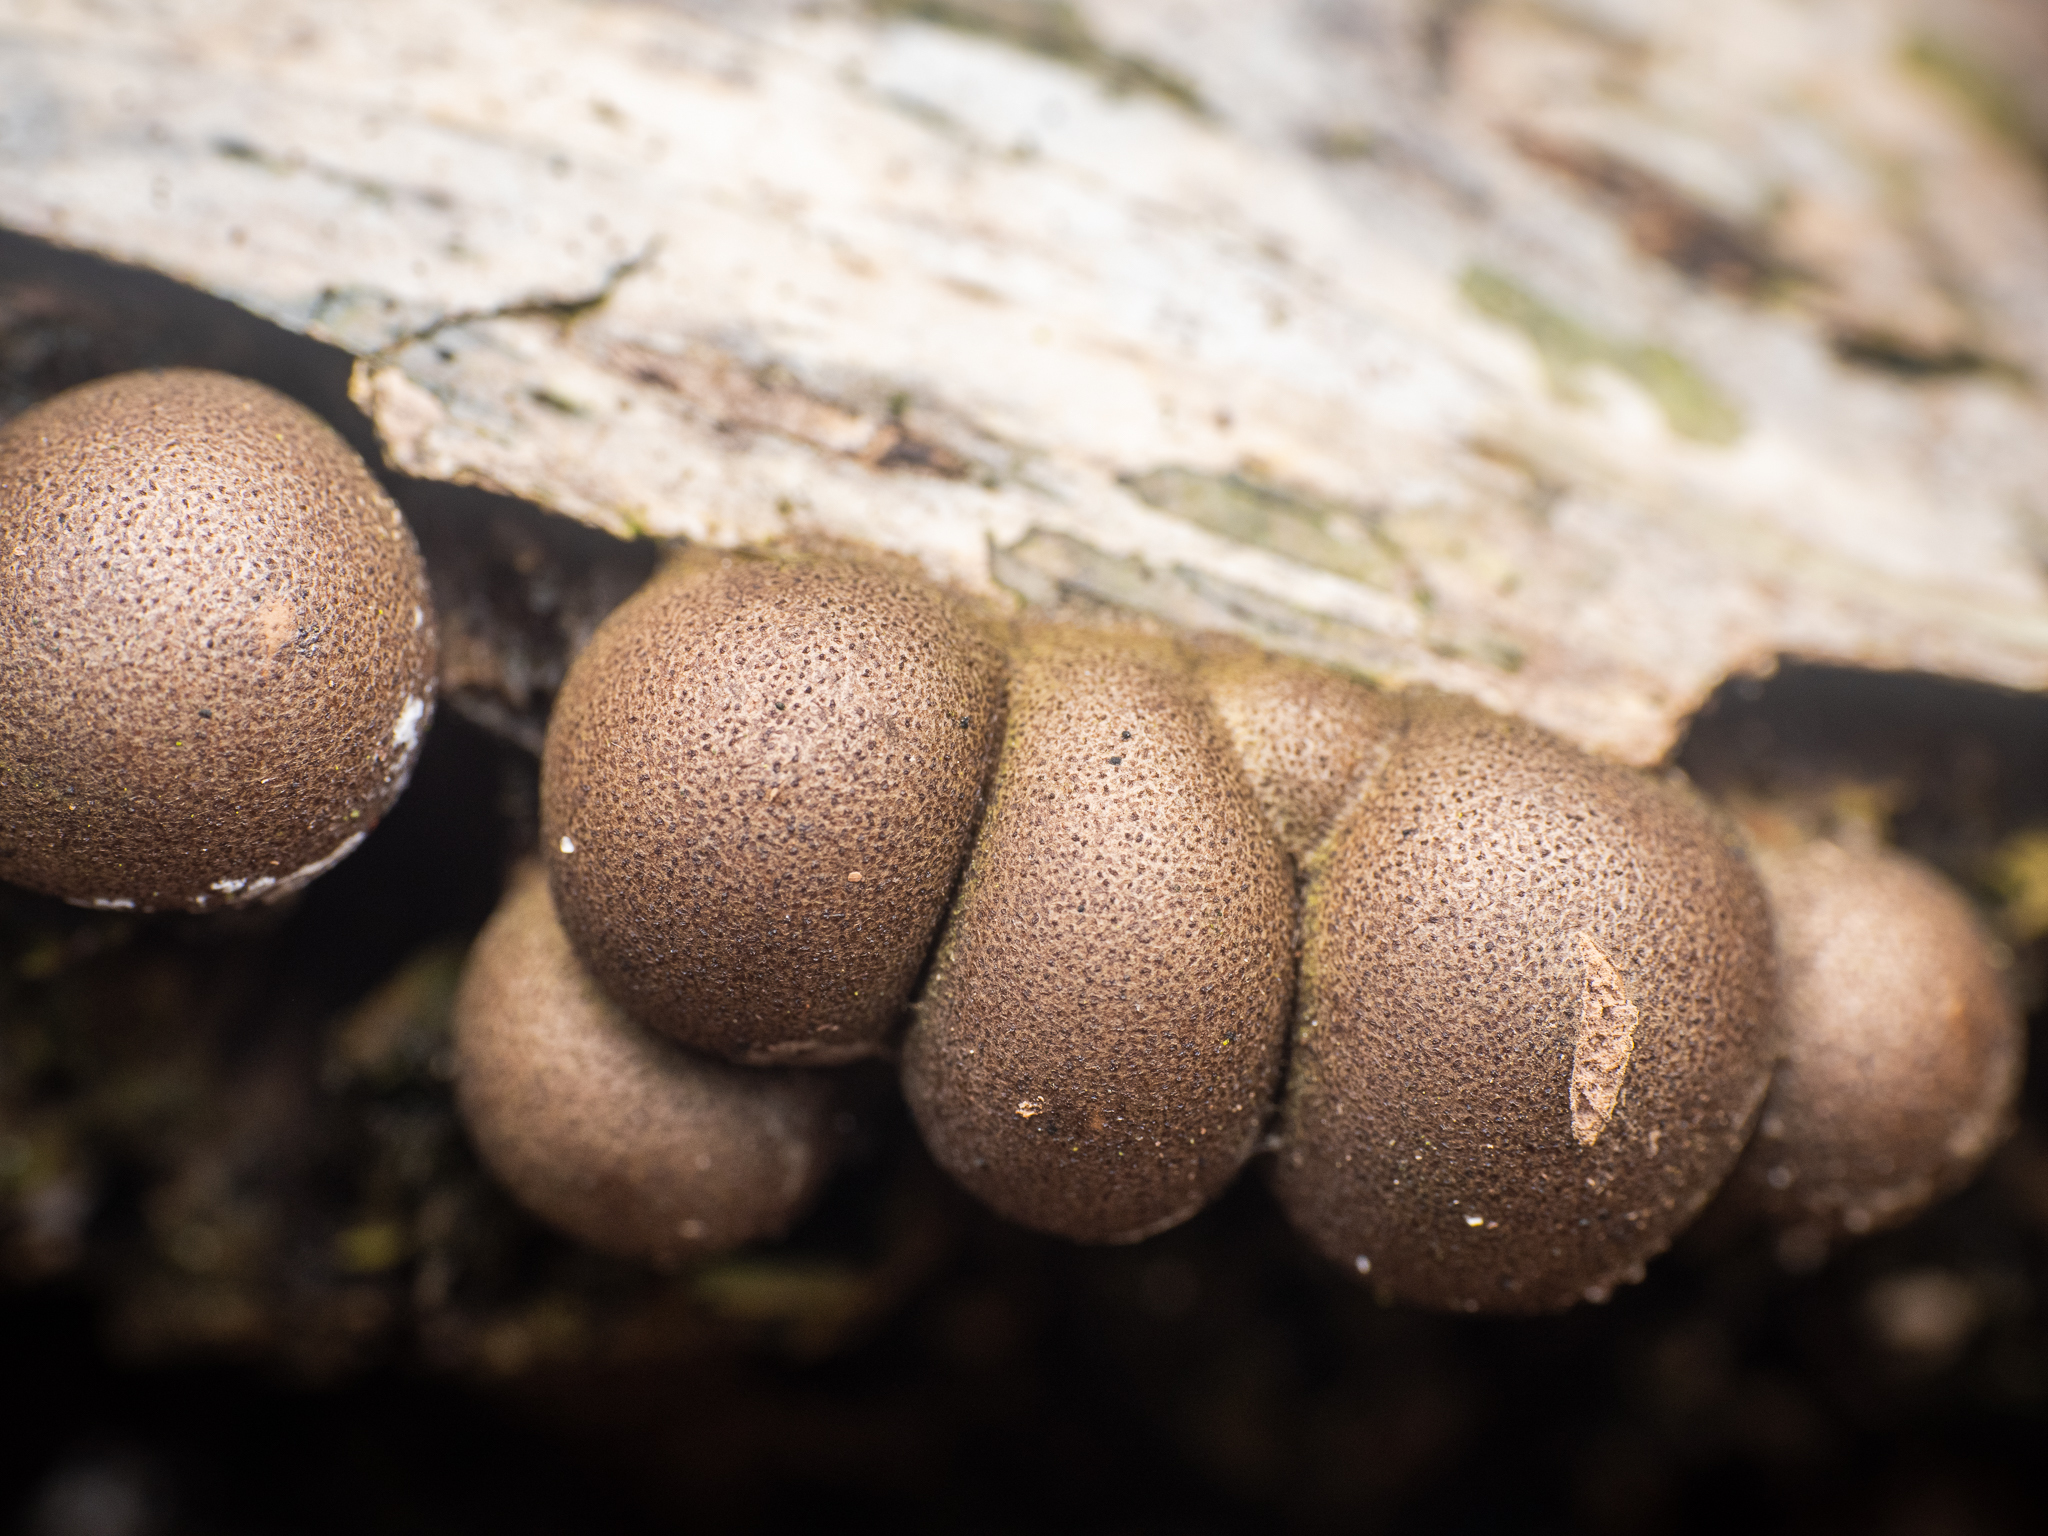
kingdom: Protozoa
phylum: Mycetozoa
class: Myxomycetes
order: Cribrariales
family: Tubiferaceae
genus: Lycogala
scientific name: Lycogala epidendrum
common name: Wolf's milk
